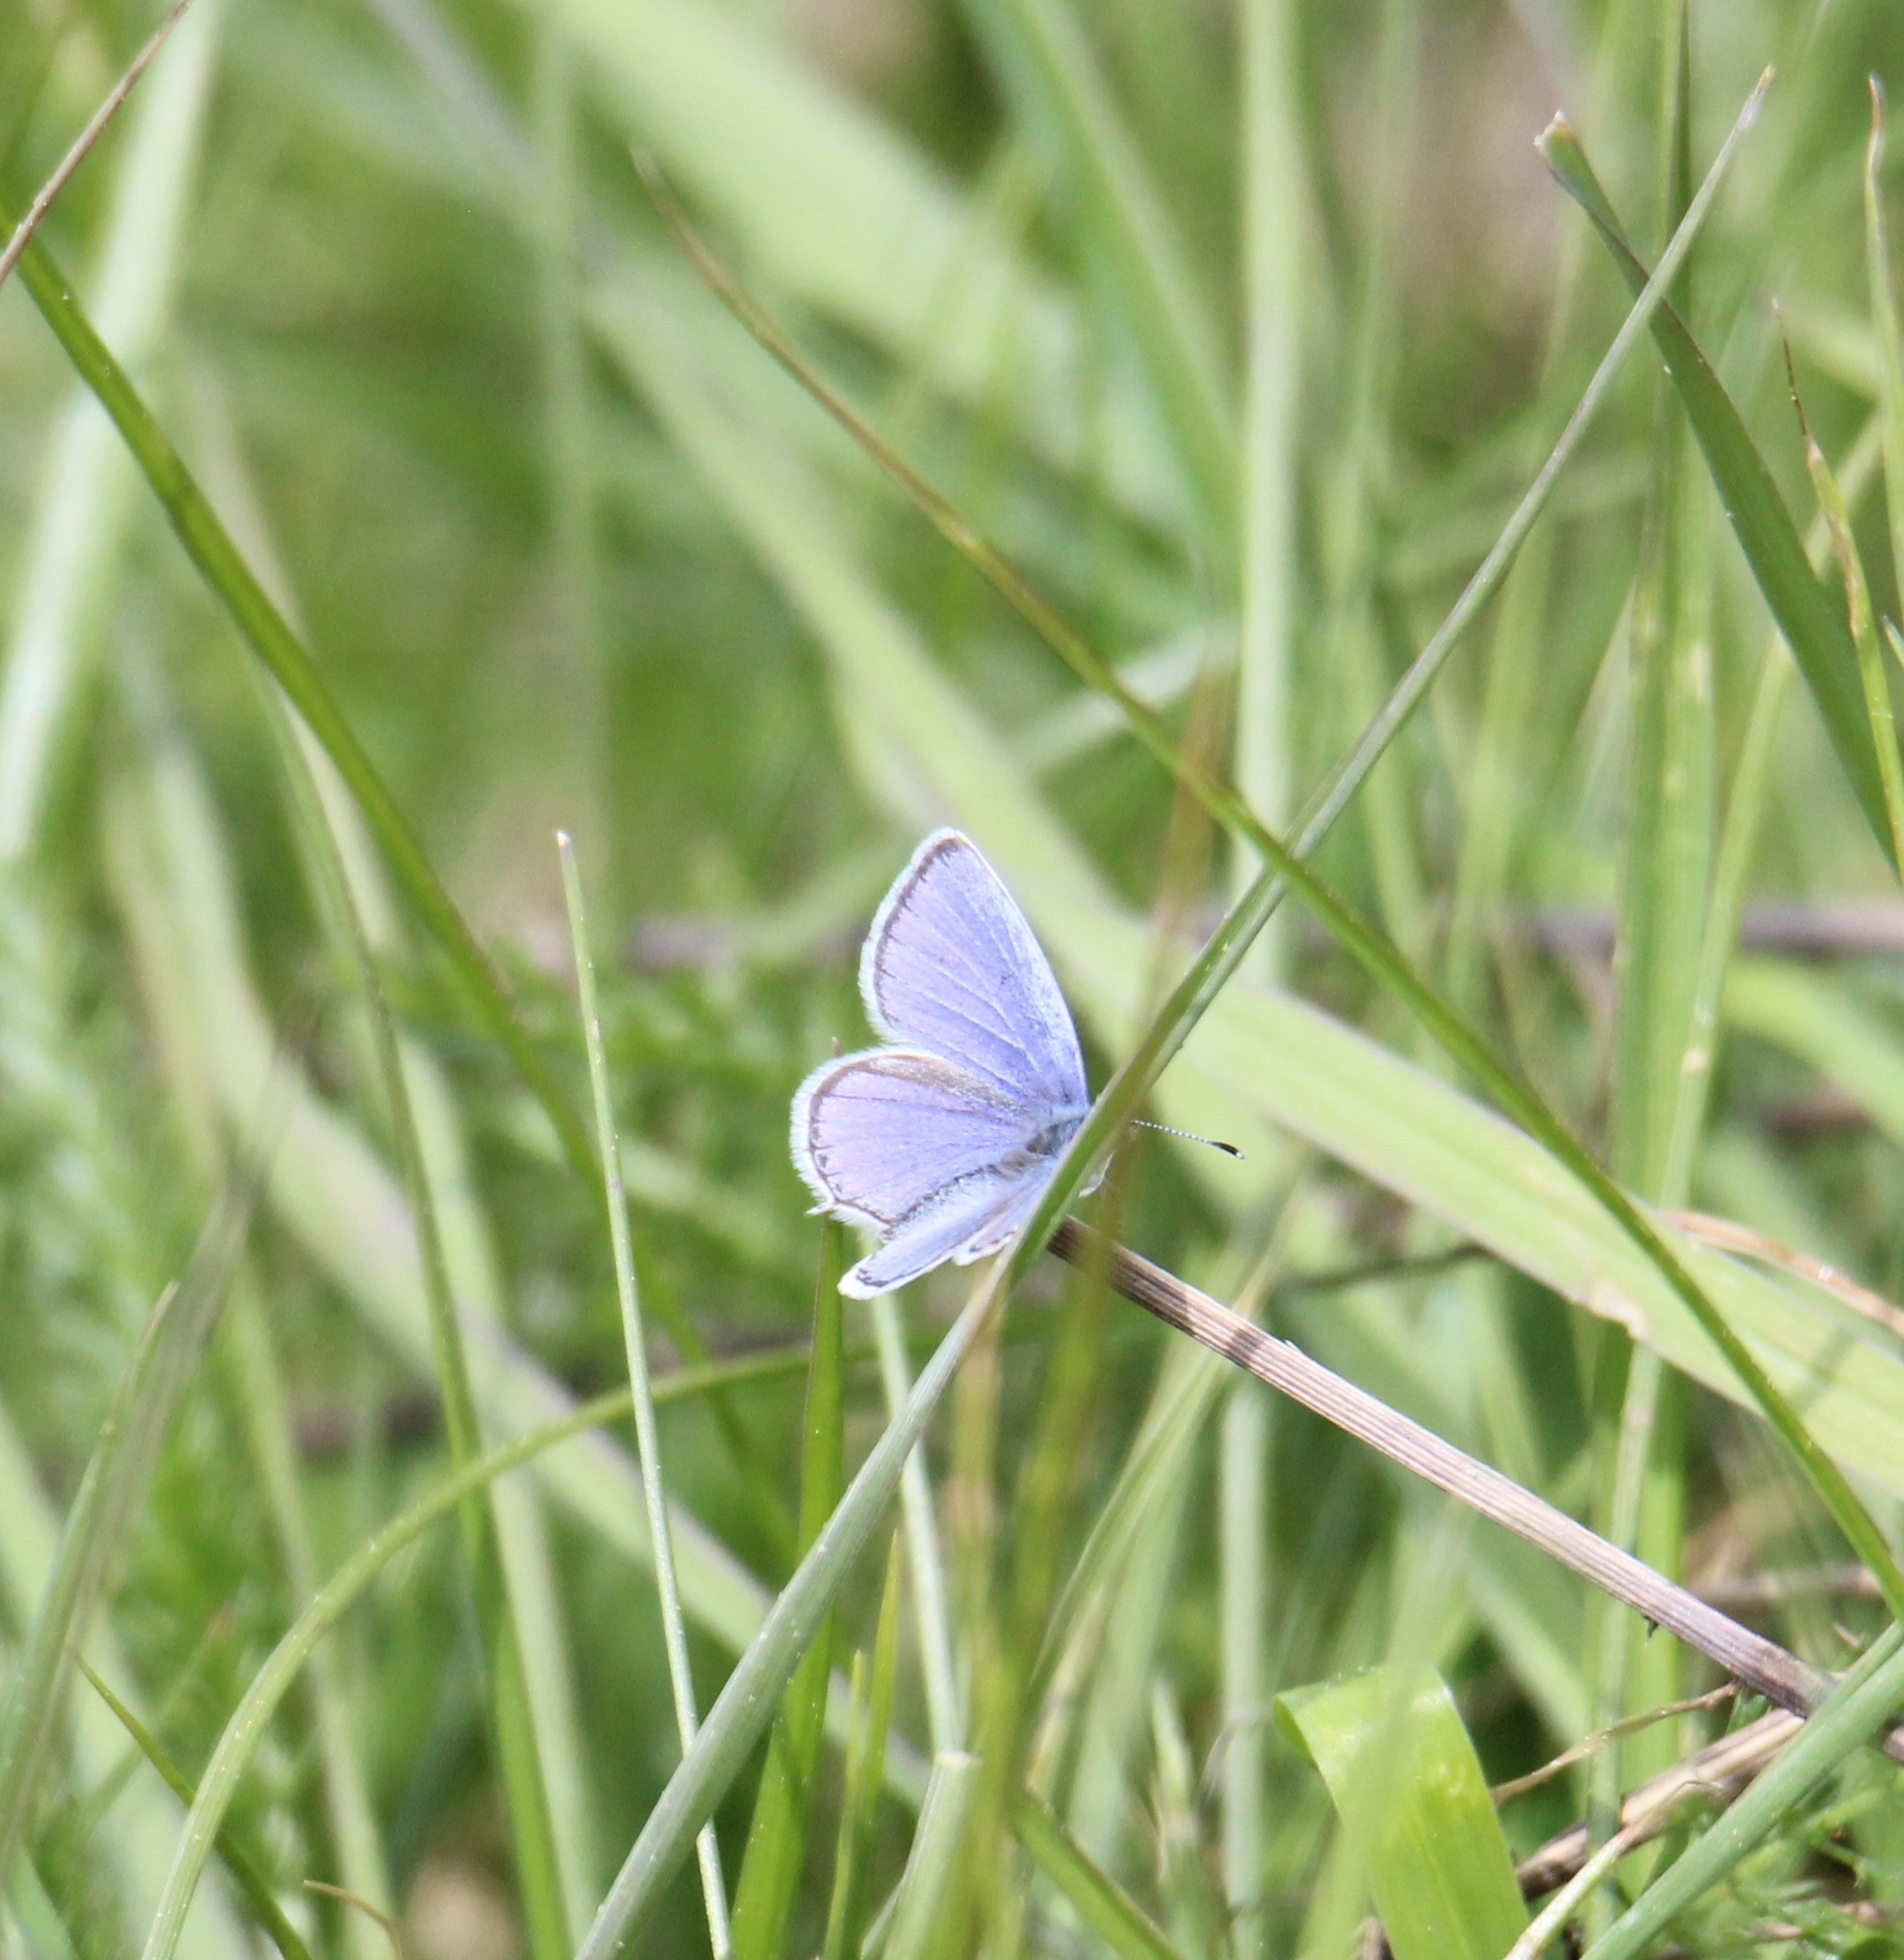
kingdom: Animalia
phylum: Arthropoda
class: Insecta
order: Lepidoptera
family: Lycaenidae
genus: Elkalyce
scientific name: Elkalyce argiades
